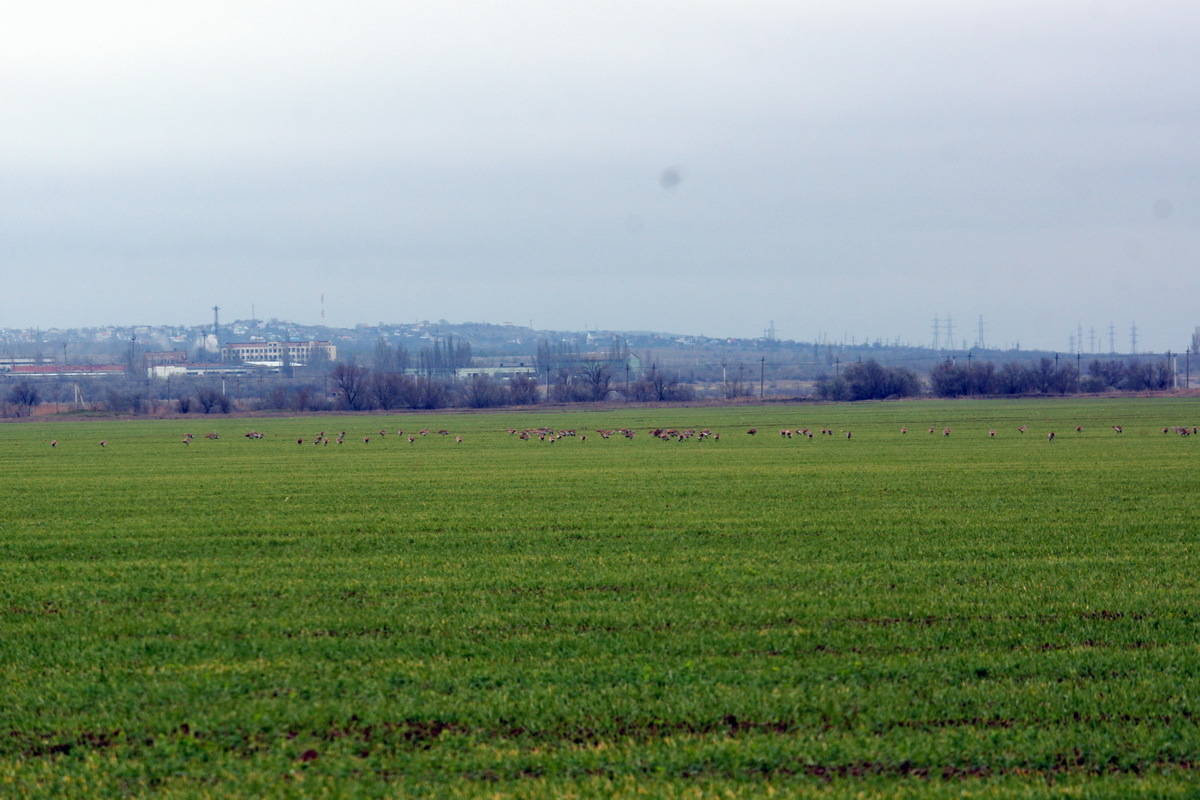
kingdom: Animalia
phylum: Chordata
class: Aves
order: Otidiformes
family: Otididae
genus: Otis
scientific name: Otis tarda
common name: Great bustard
